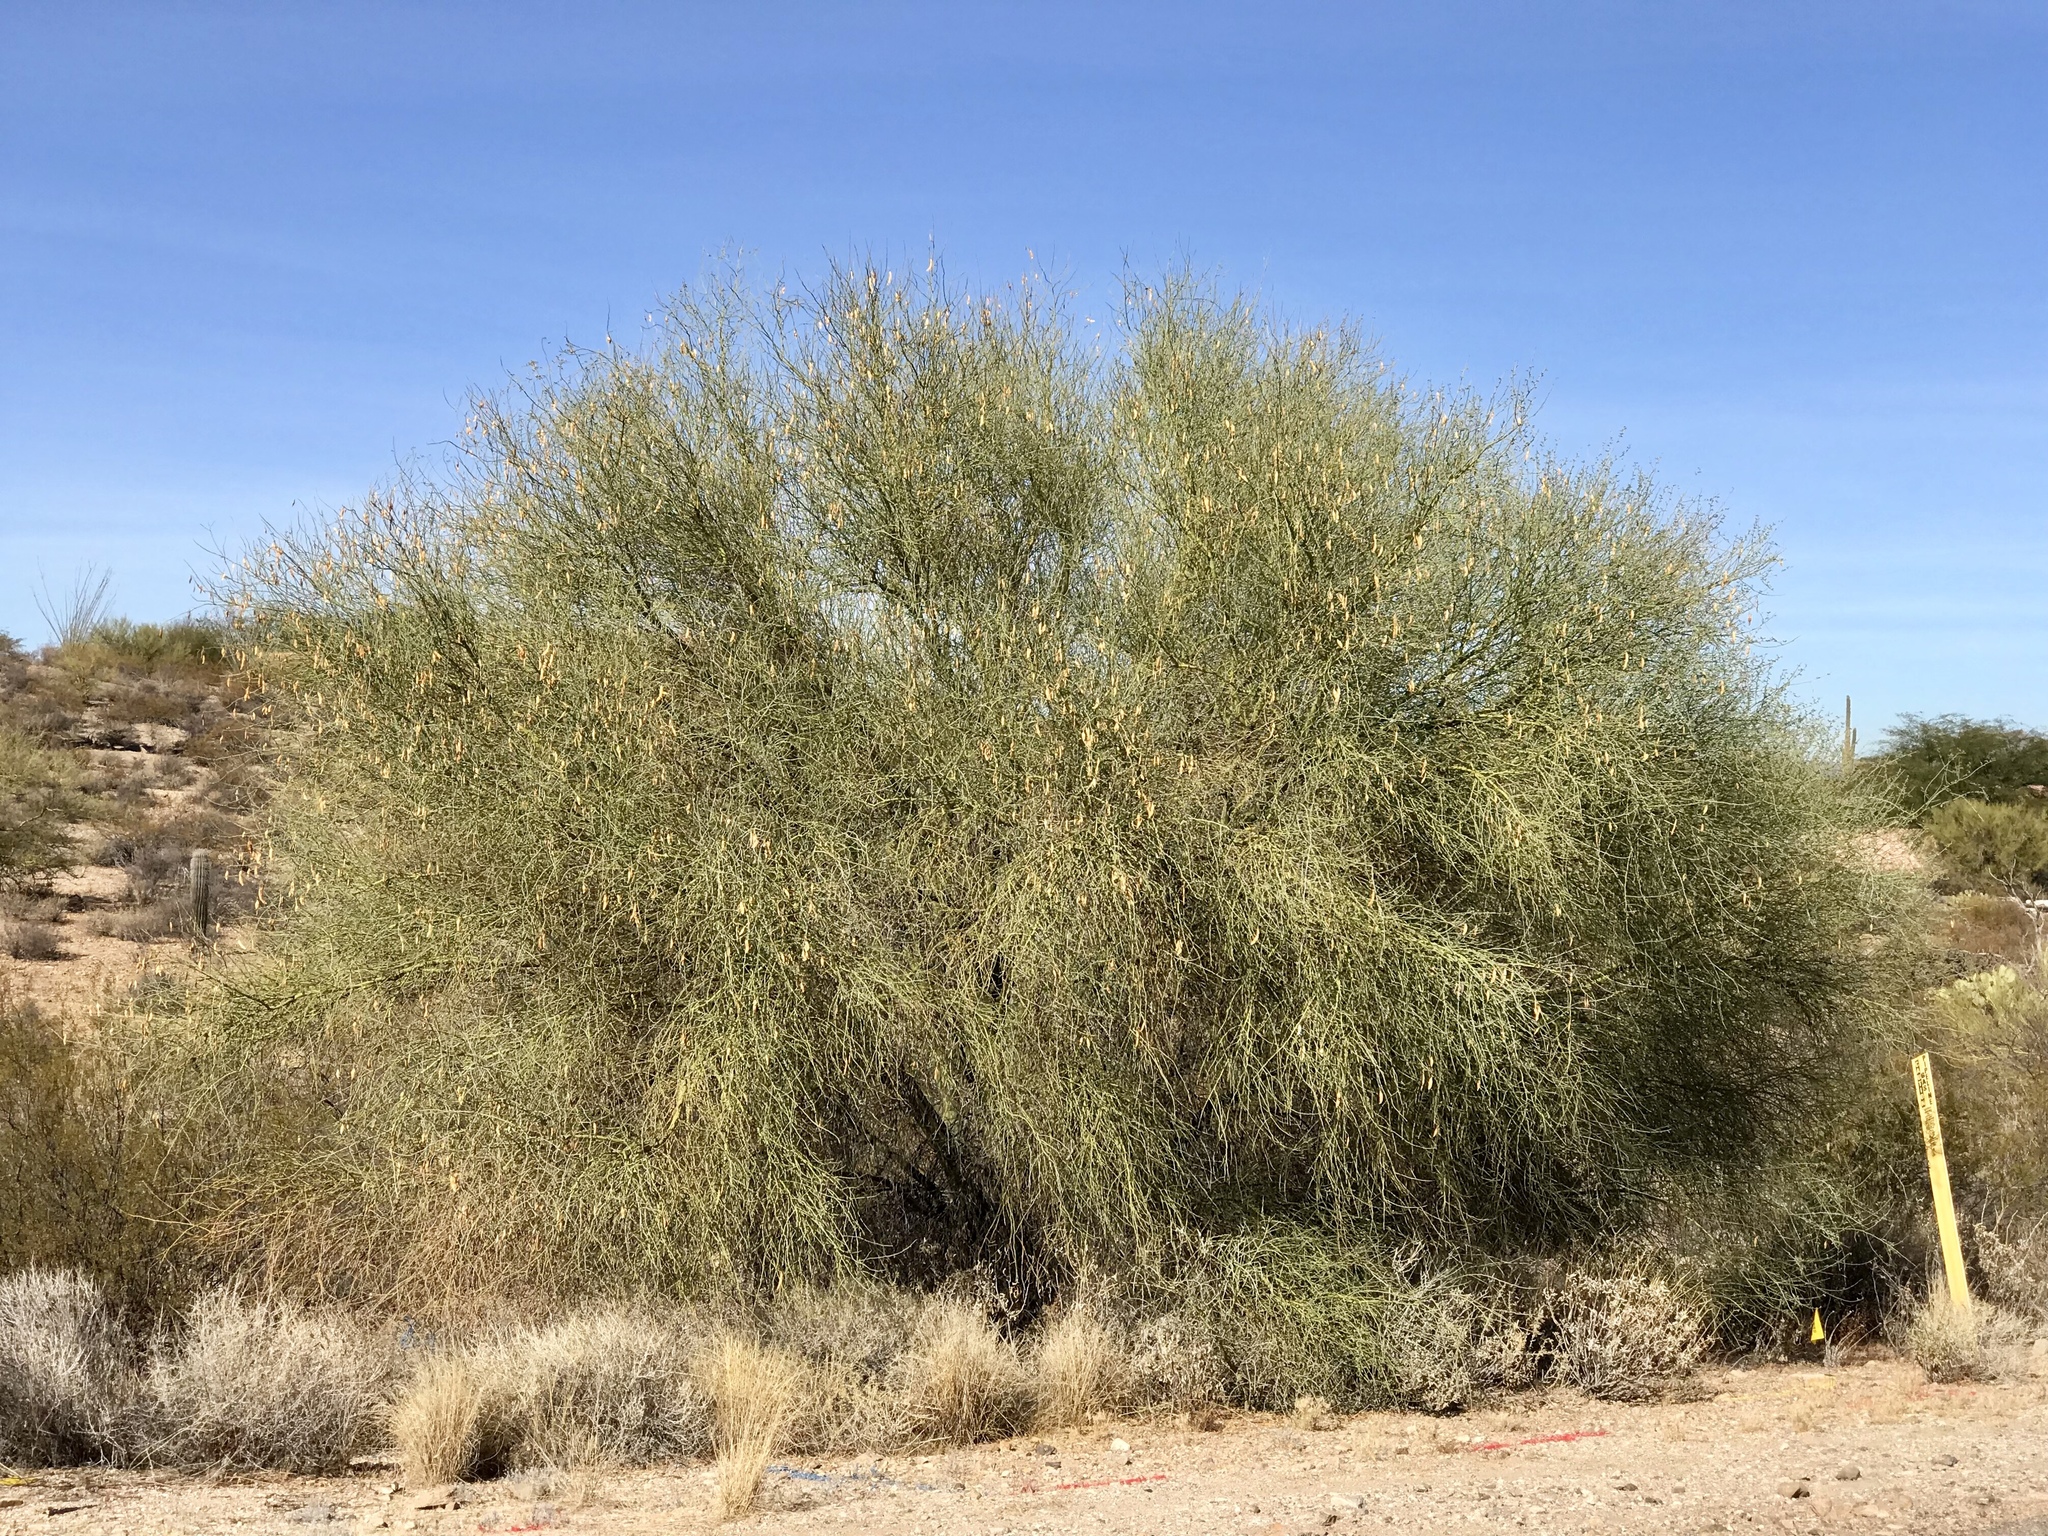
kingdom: Plantae
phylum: Tracheophyta
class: Magnoliopsida
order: Fabales
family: Fabaceae
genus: Parkinsonia
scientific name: Parkinsonia florida
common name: Blue paloverde
